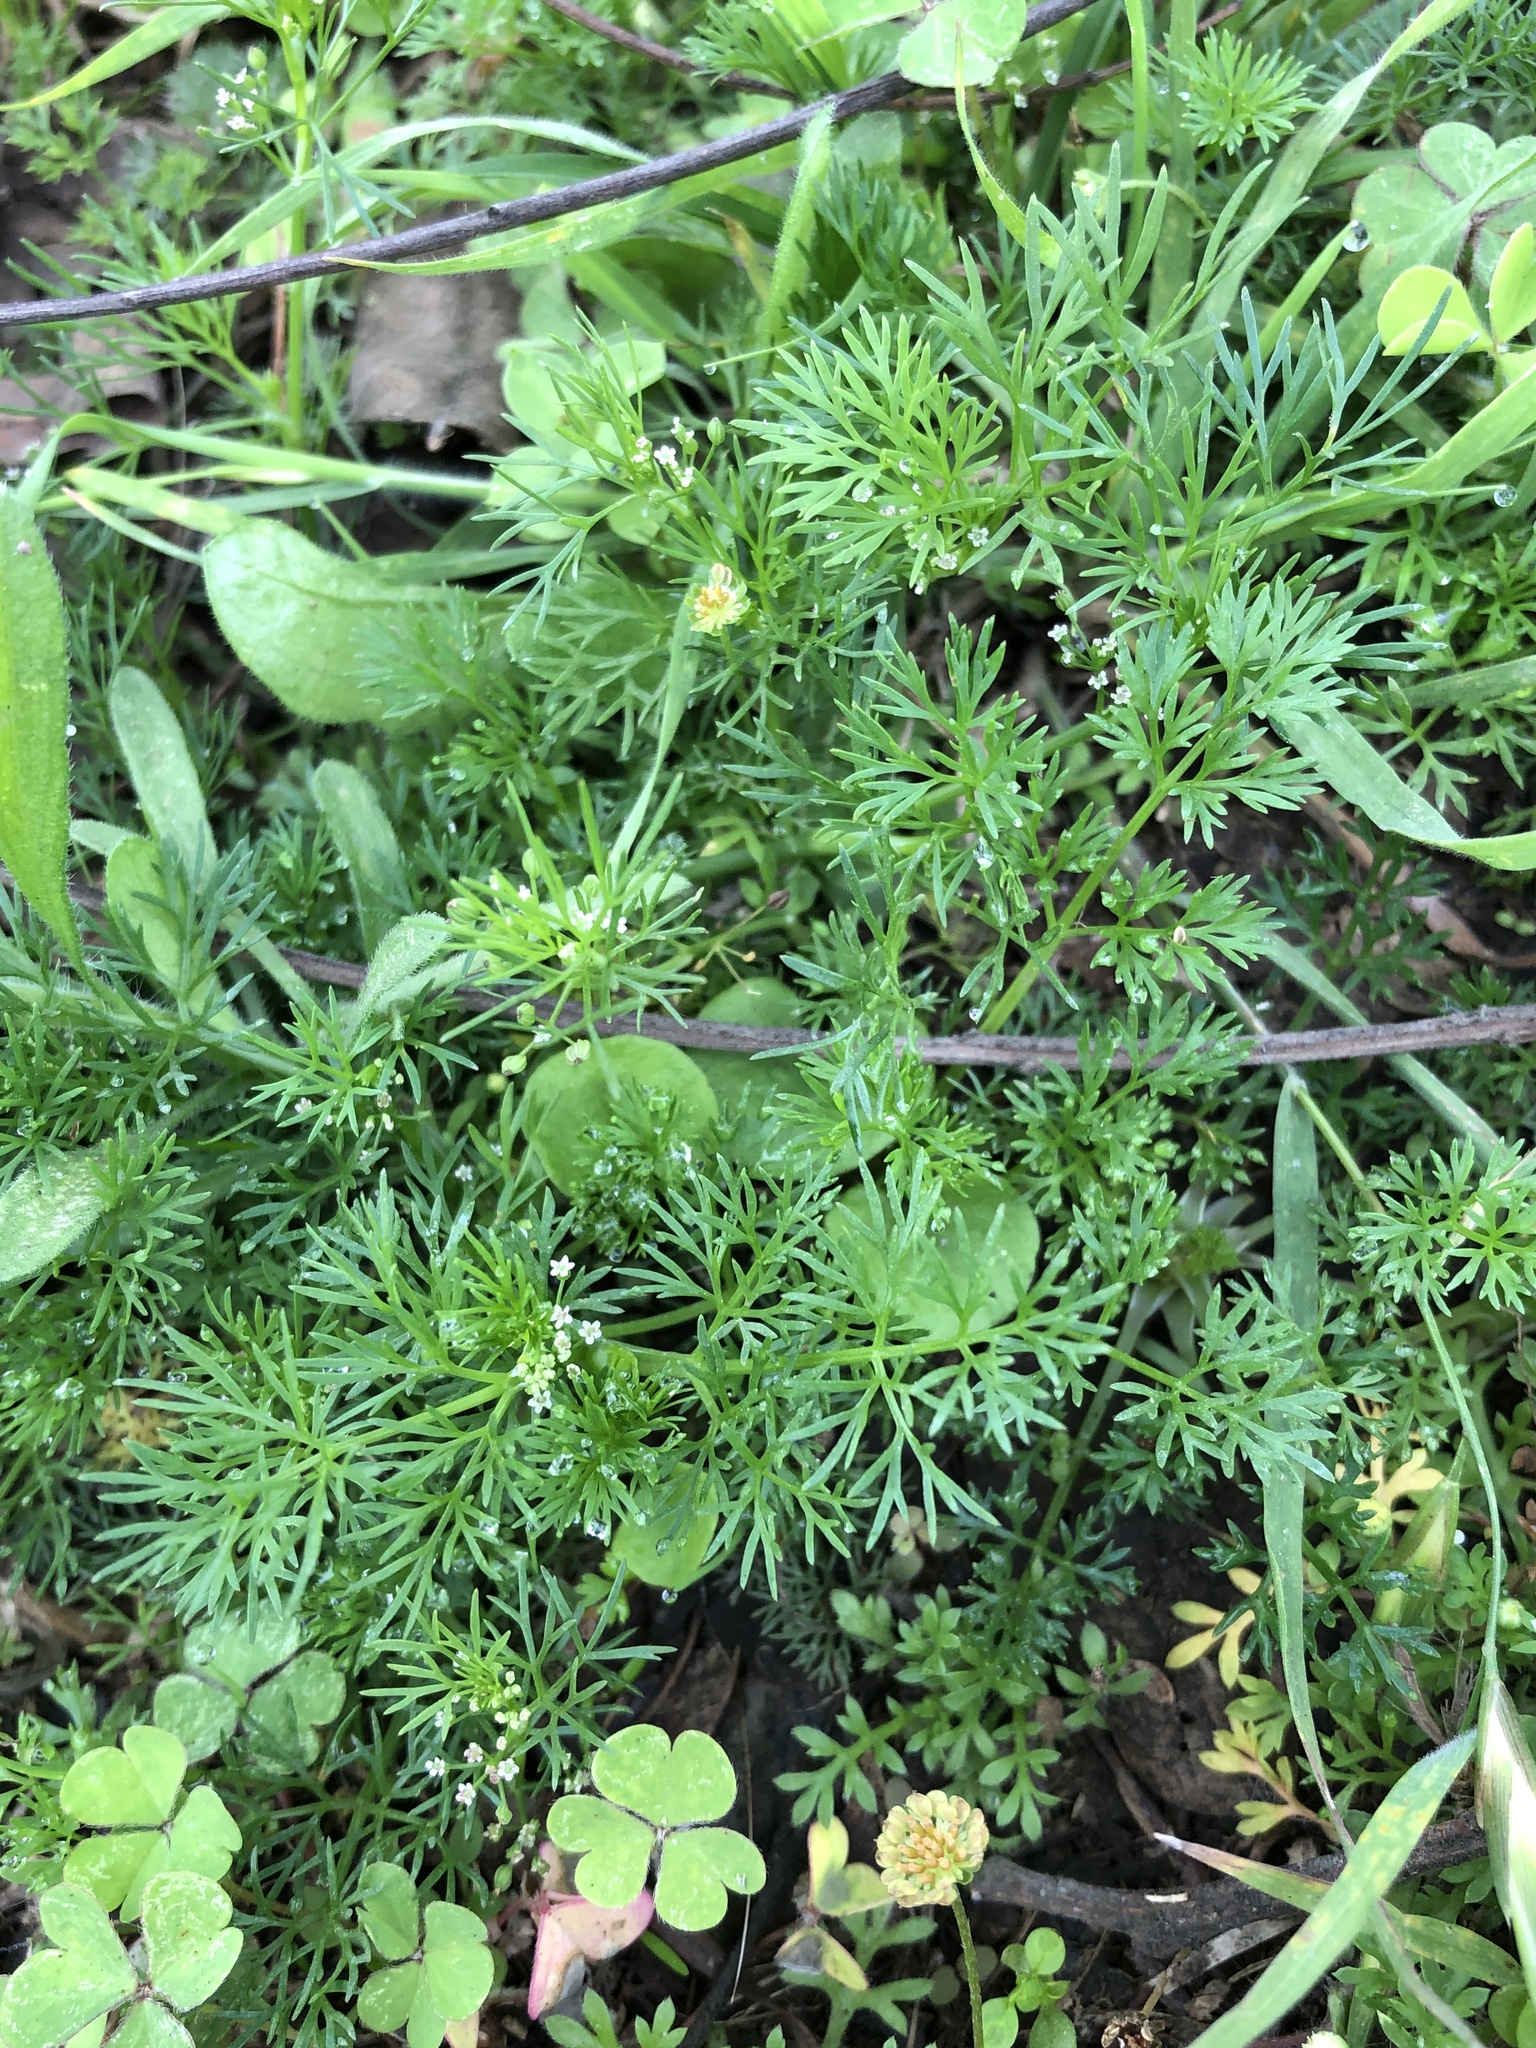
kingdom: Plantae
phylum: Tracheophyta
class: Magnoliopsida
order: Apiales
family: Apiaceae
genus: Cyclospermum
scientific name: Cyclospermum leptophyllum
